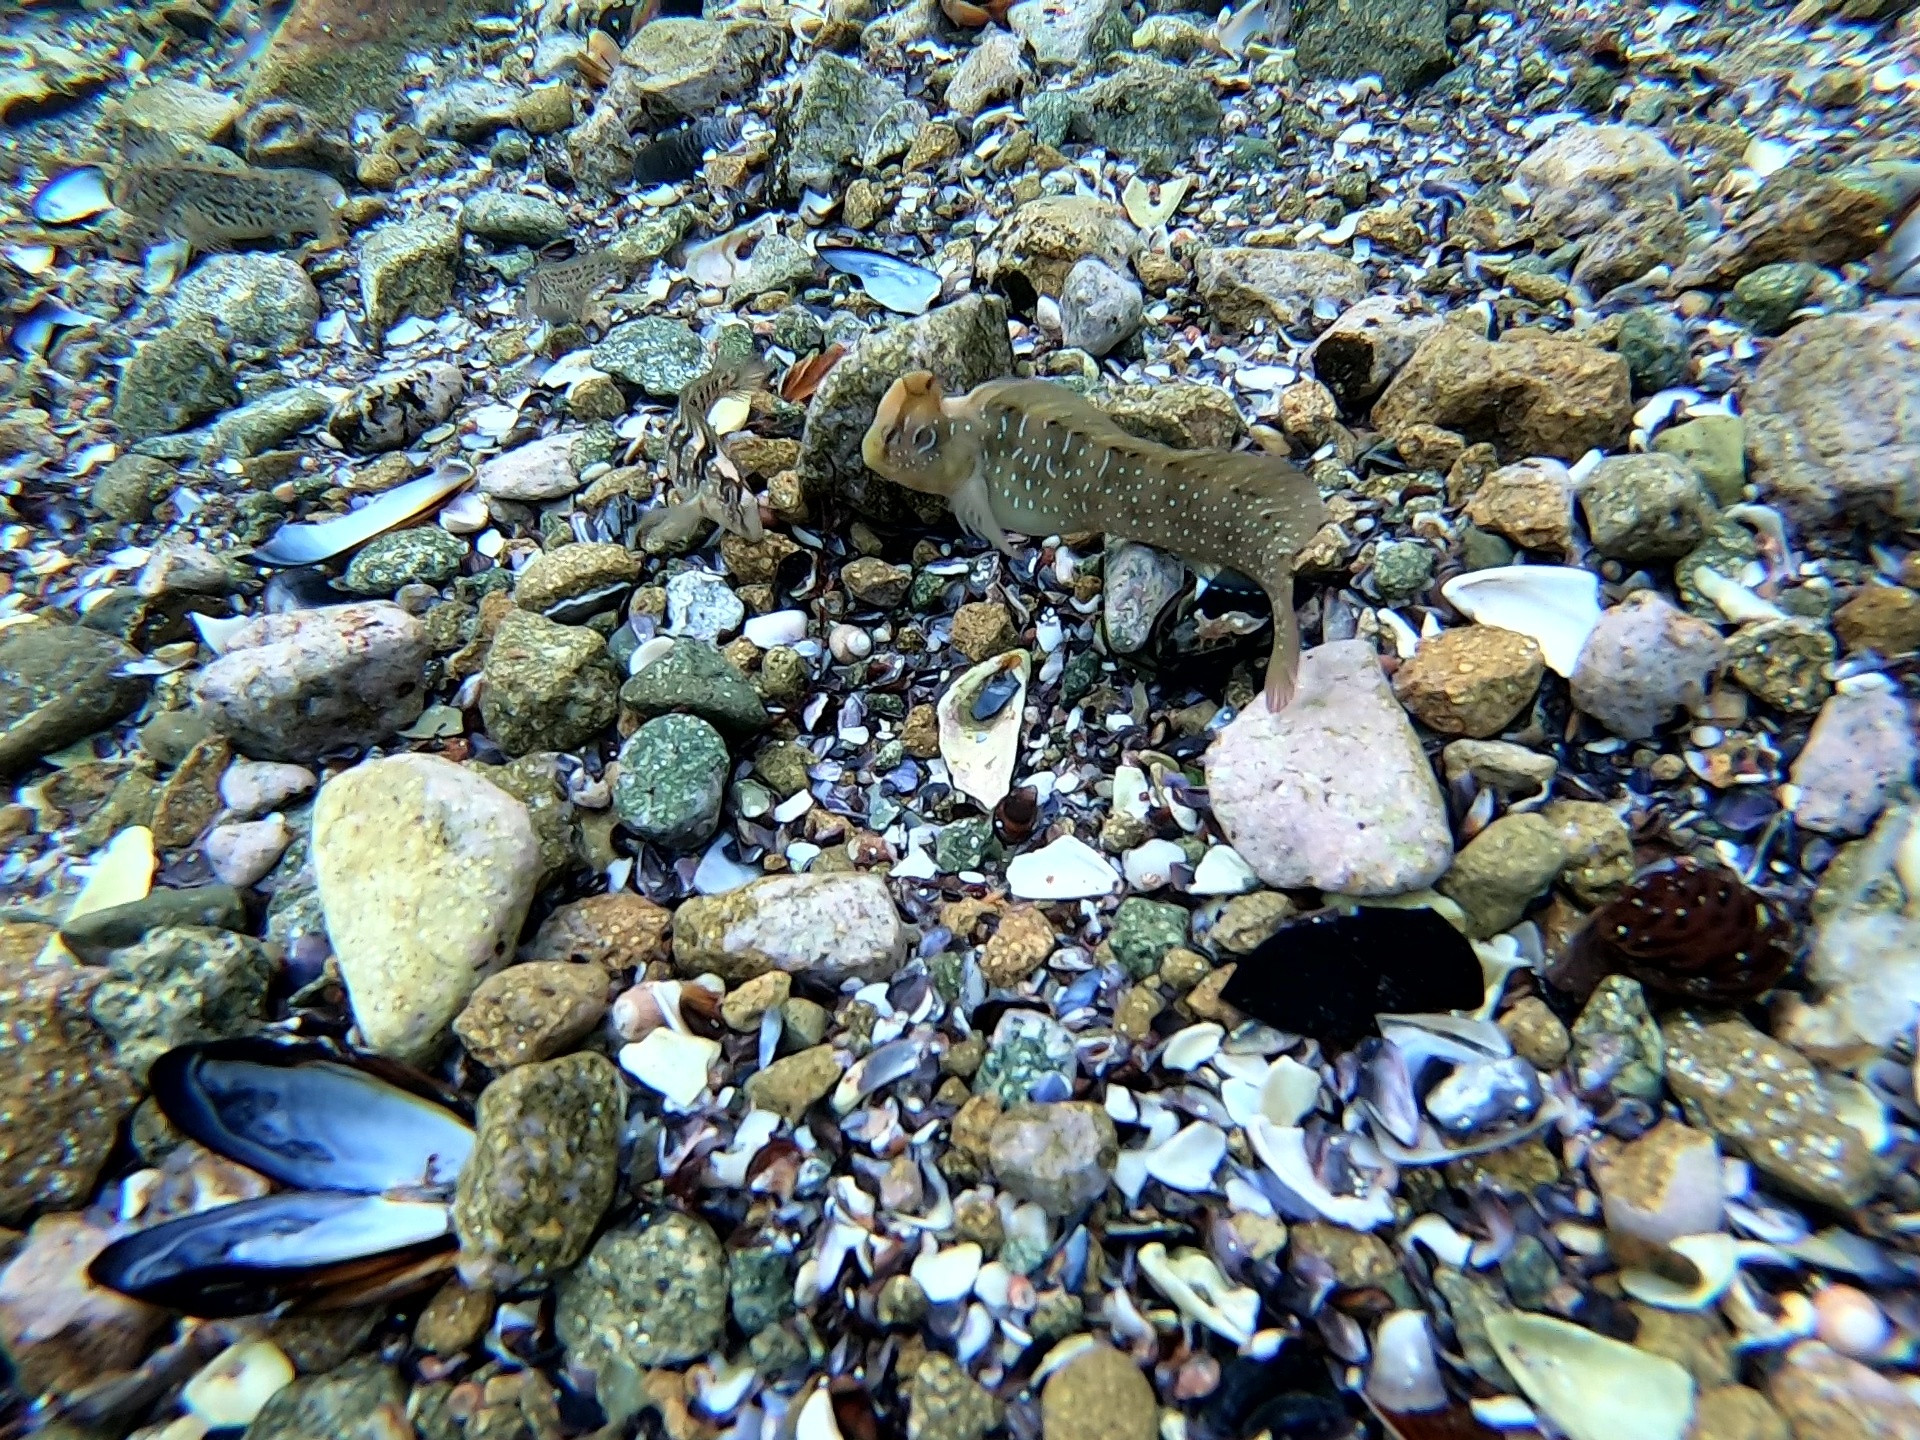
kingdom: Animalia
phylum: Chordata
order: Perciformes
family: Blenniidae
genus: Salaria
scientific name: Salaria pavo
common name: Peacock blenny
